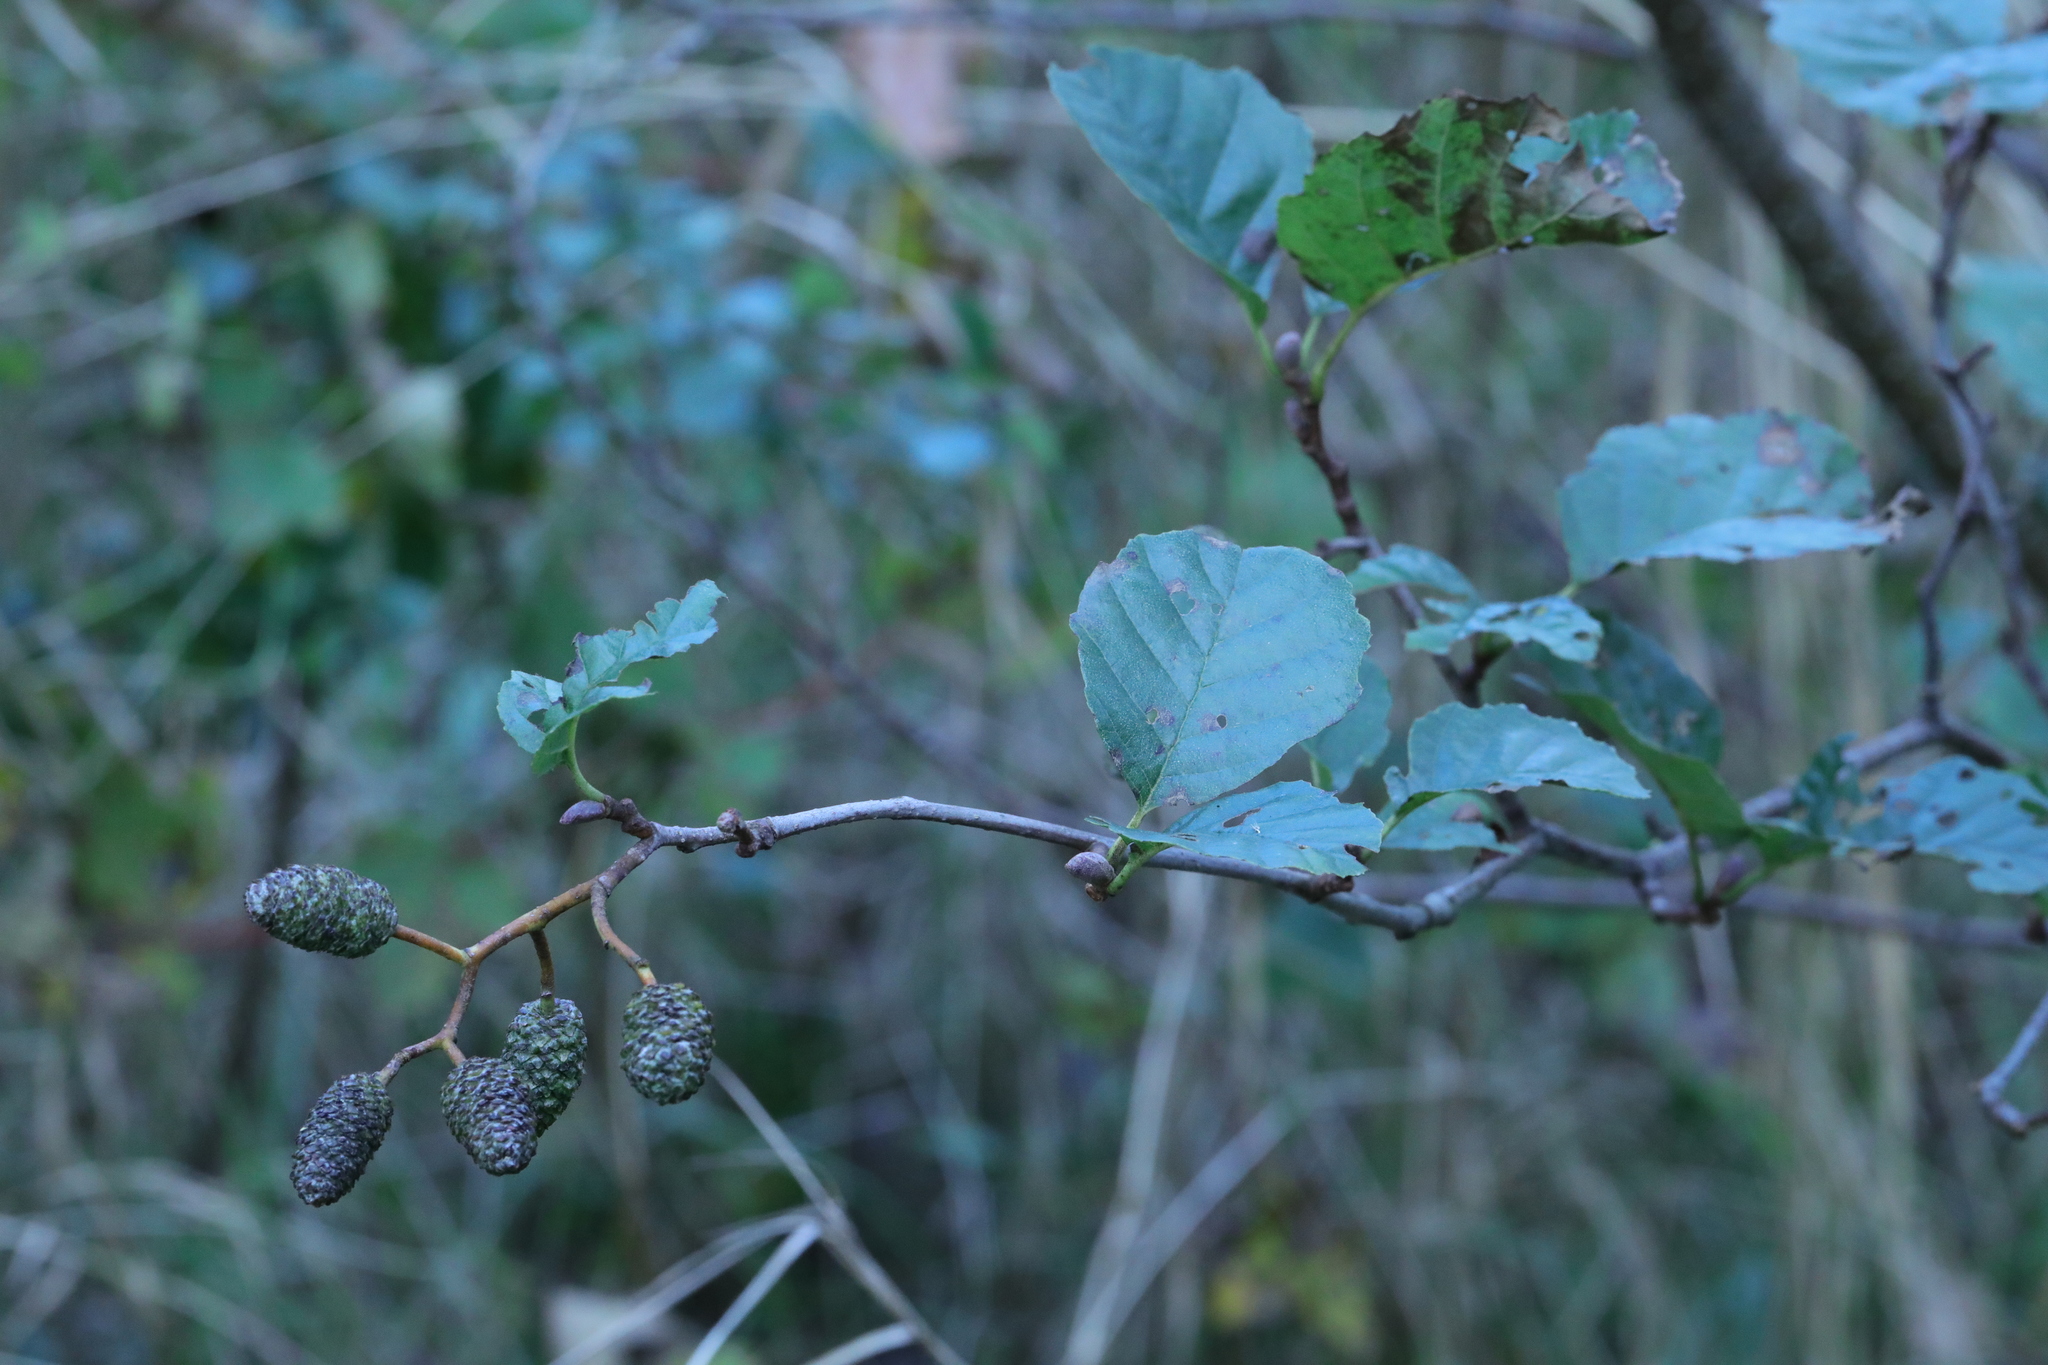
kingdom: Plantae
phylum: Tracheophyta
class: Magnoliopsida
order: Fagales
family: Betulaceae
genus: Alnus
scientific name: Alnus glutinosa
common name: Black alder
